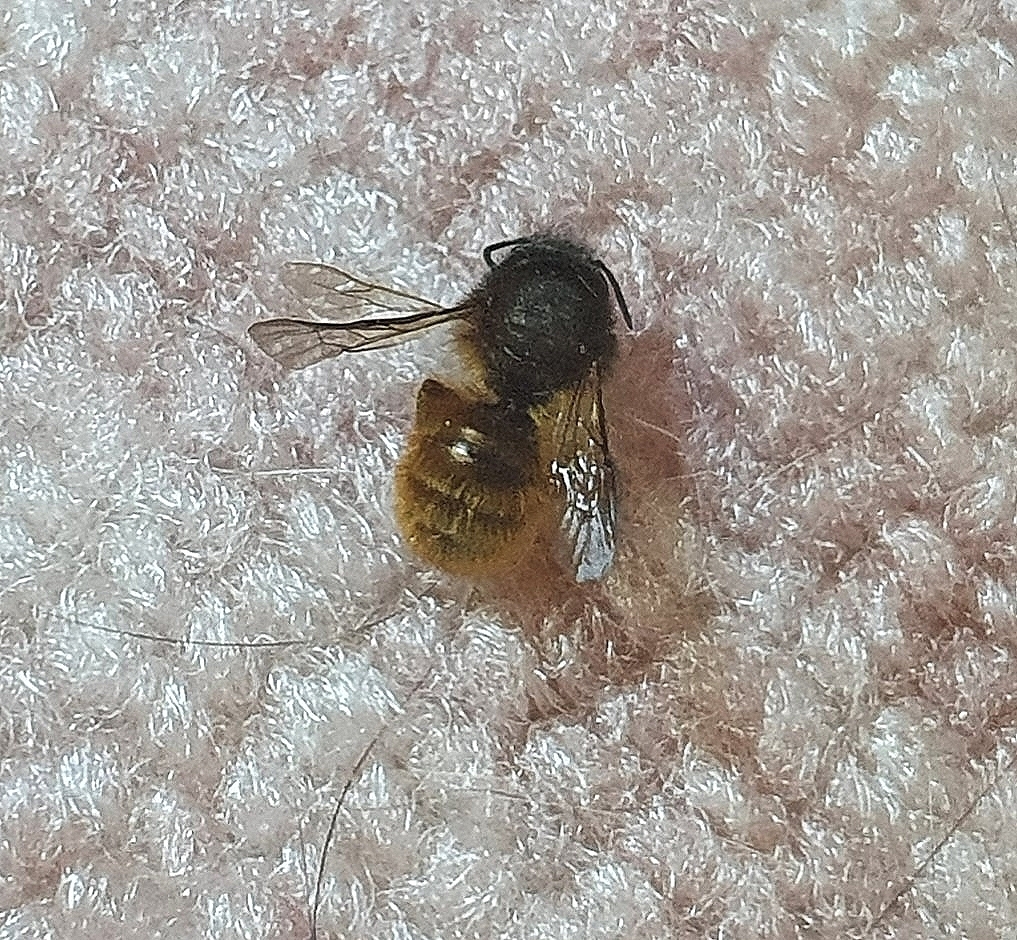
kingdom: Animalia
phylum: Arthropoda
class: Insecta
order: Hymenoptera
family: Megachilidae
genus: Osmia
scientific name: Osmia bicornis
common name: Red mason bee
